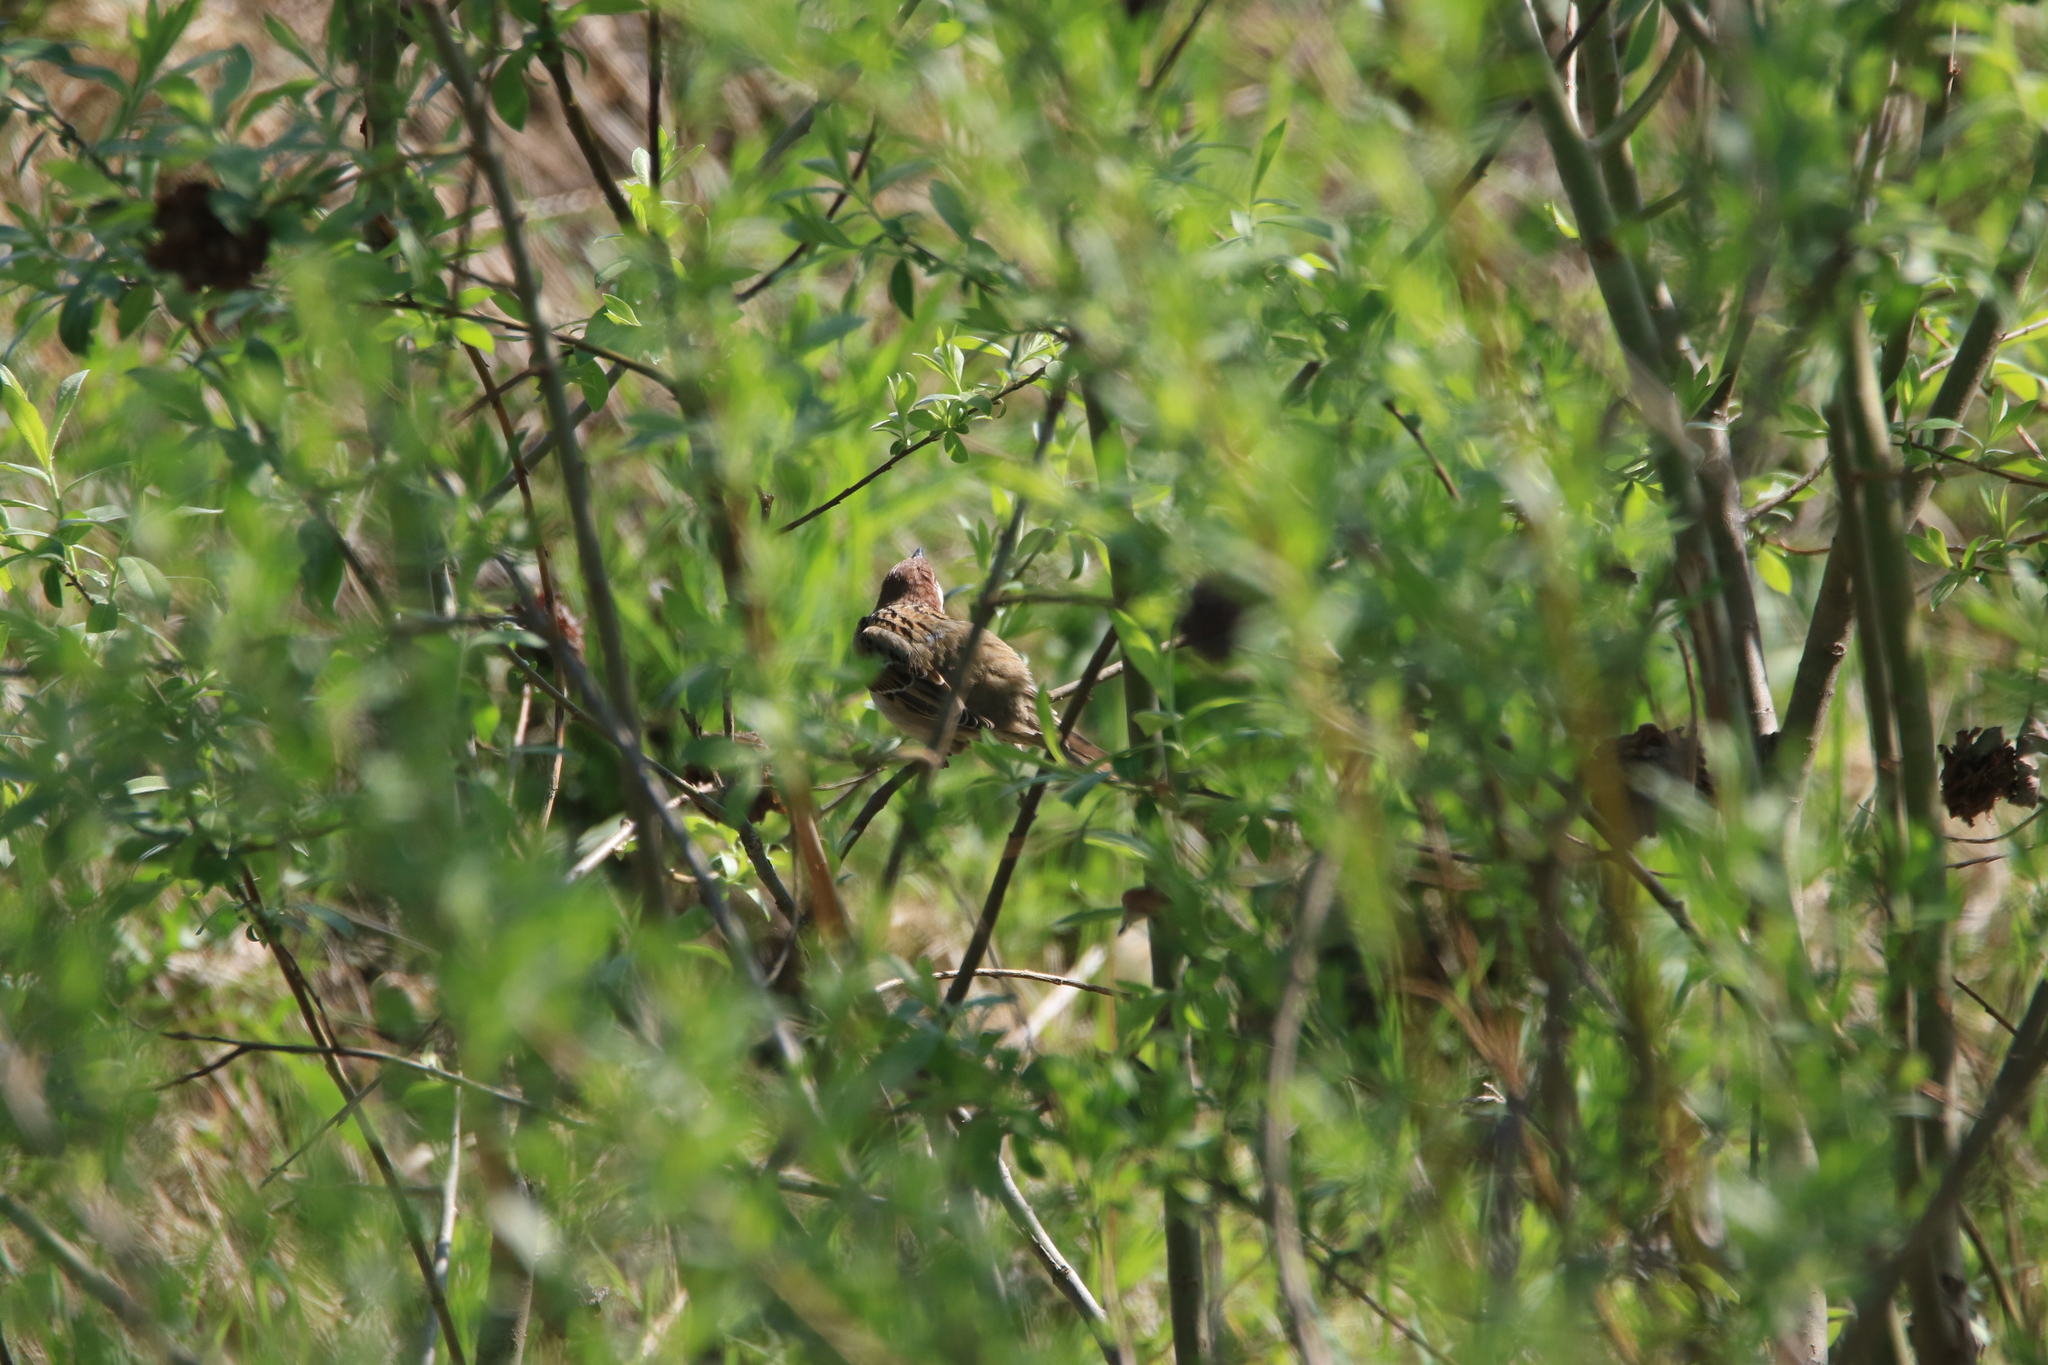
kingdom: Animalia
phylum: Chordata
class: Aves
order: Passeriformes
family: Passeridae
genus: Passer
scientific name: Passer montanus
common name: Eurasian tree sparrow
